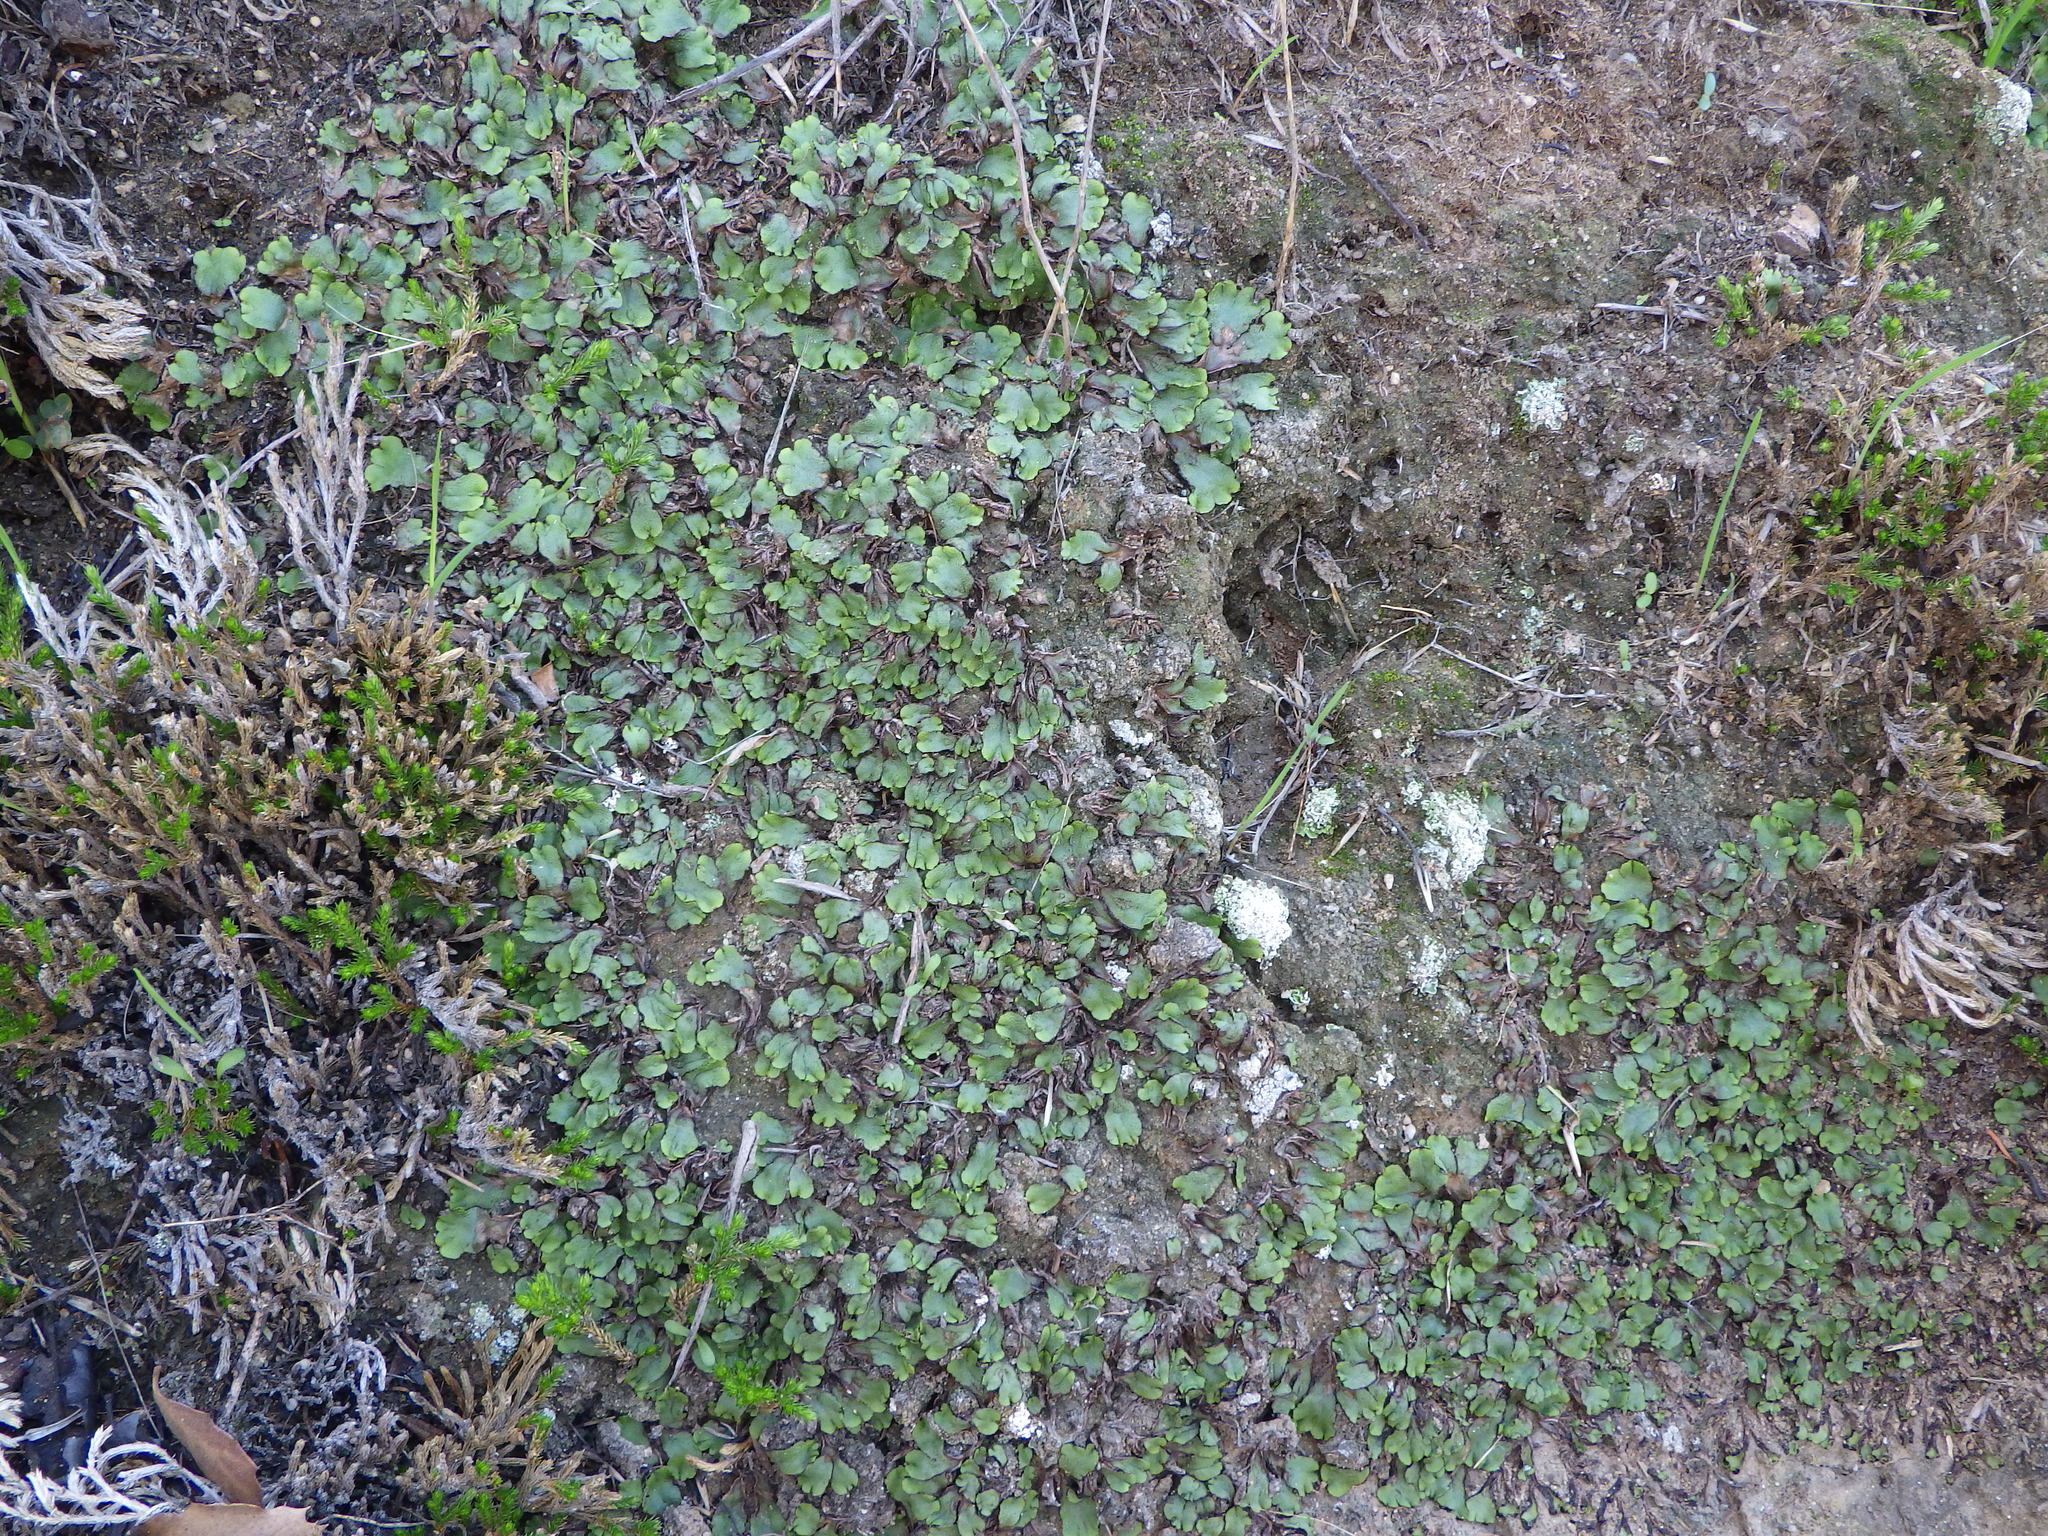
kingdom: Plantae
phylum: Marchantiophyta
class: Marchantiopsida
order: Marchantiales
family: Aytoniaceae
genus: Asterella
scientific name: Asterella californica
